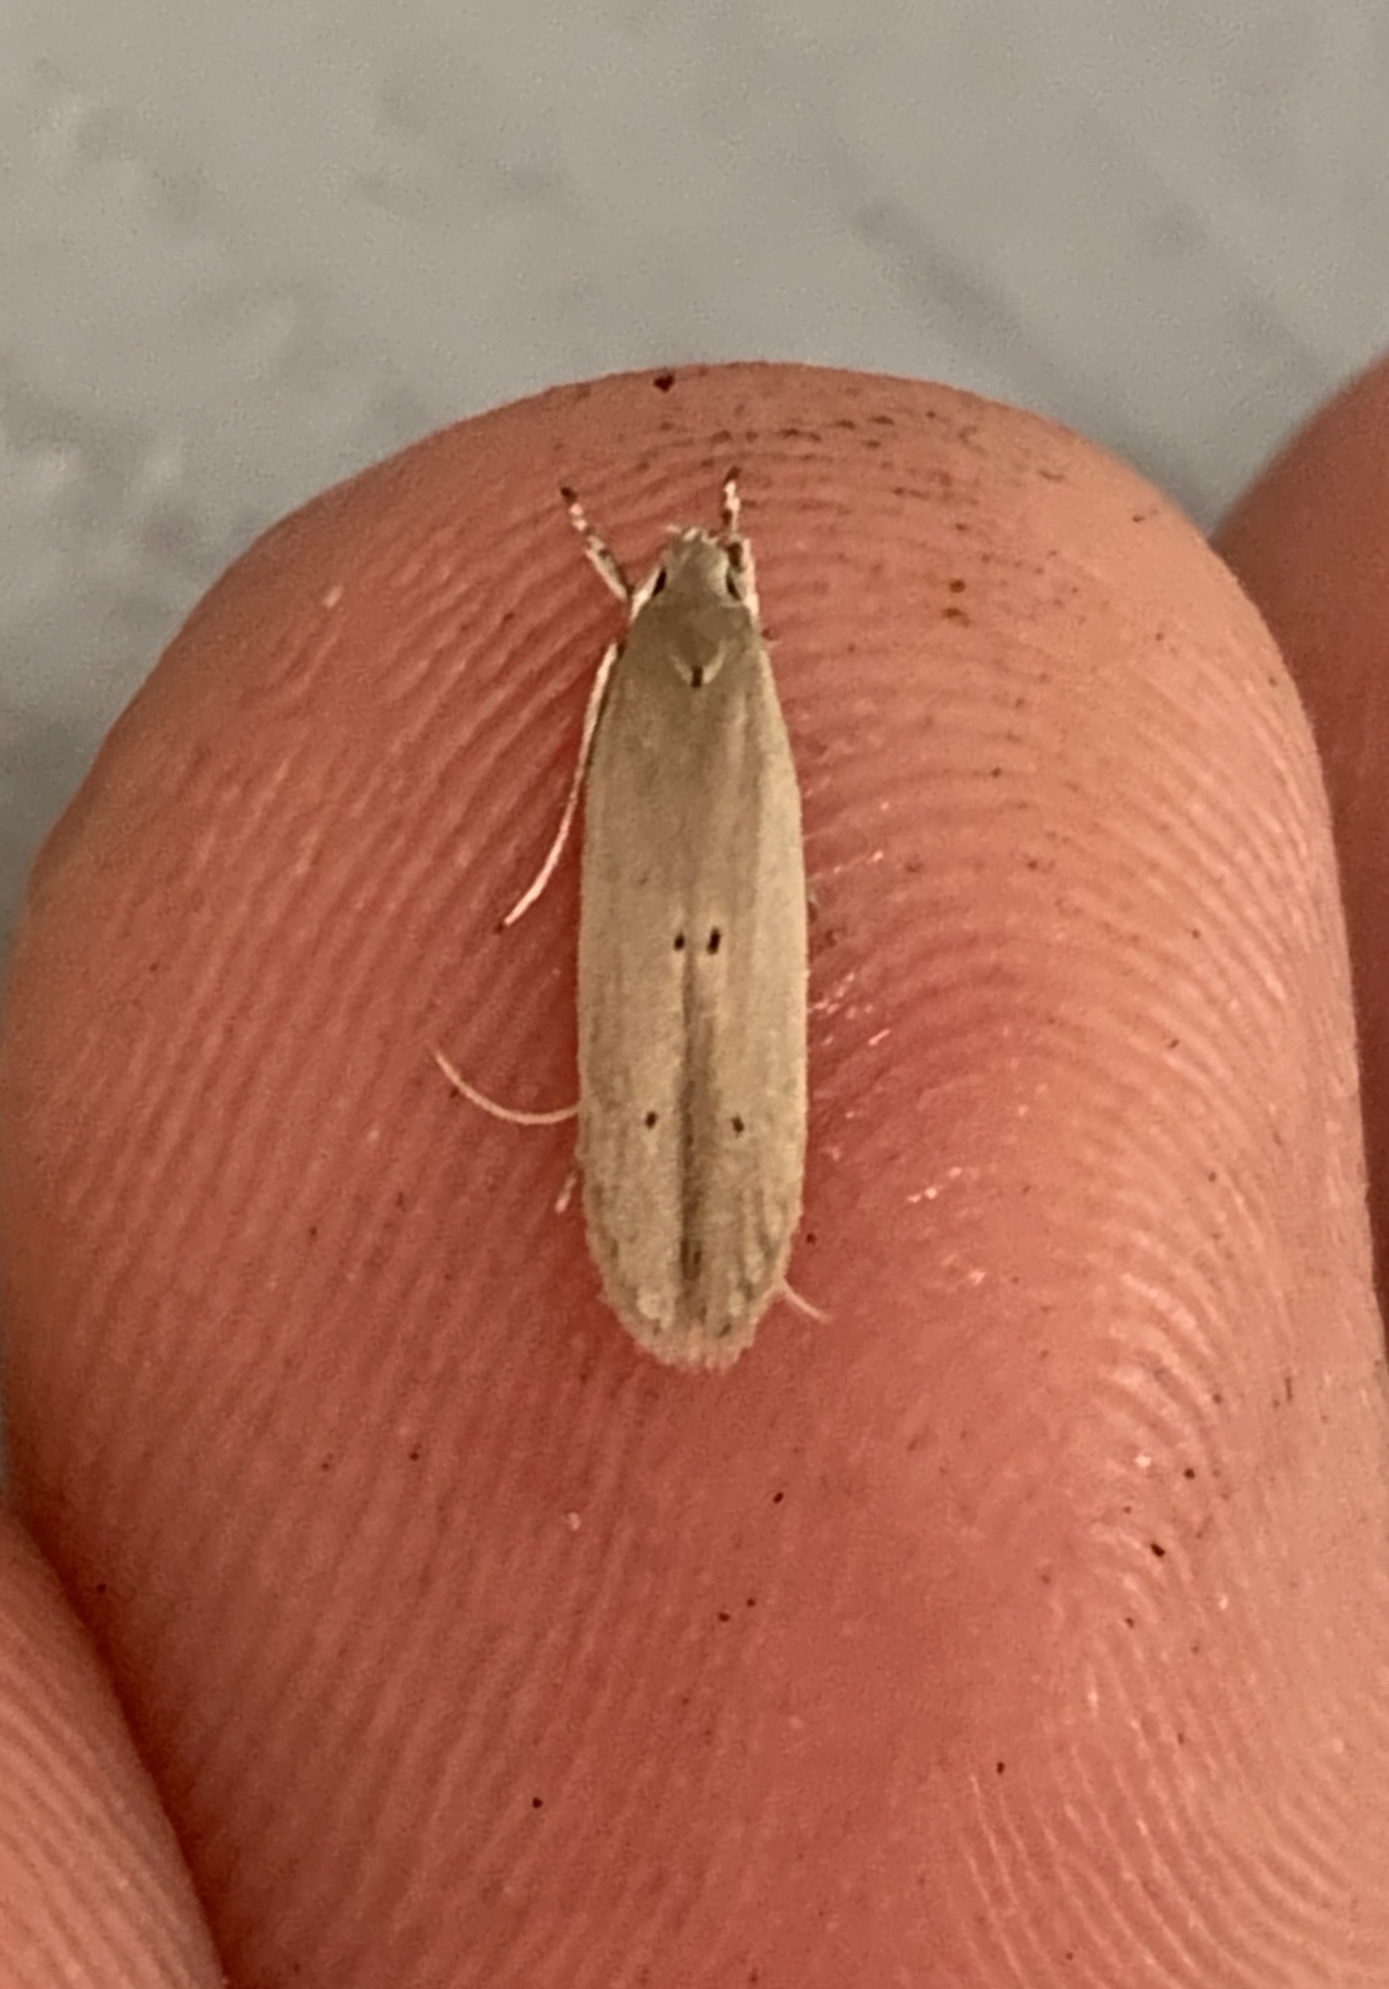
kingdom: Animalia
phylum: Arthropoda
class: Insecta
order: Lepidoptera
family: Coleophoridae
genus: Homaledra
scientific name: Homaledra sabalella
